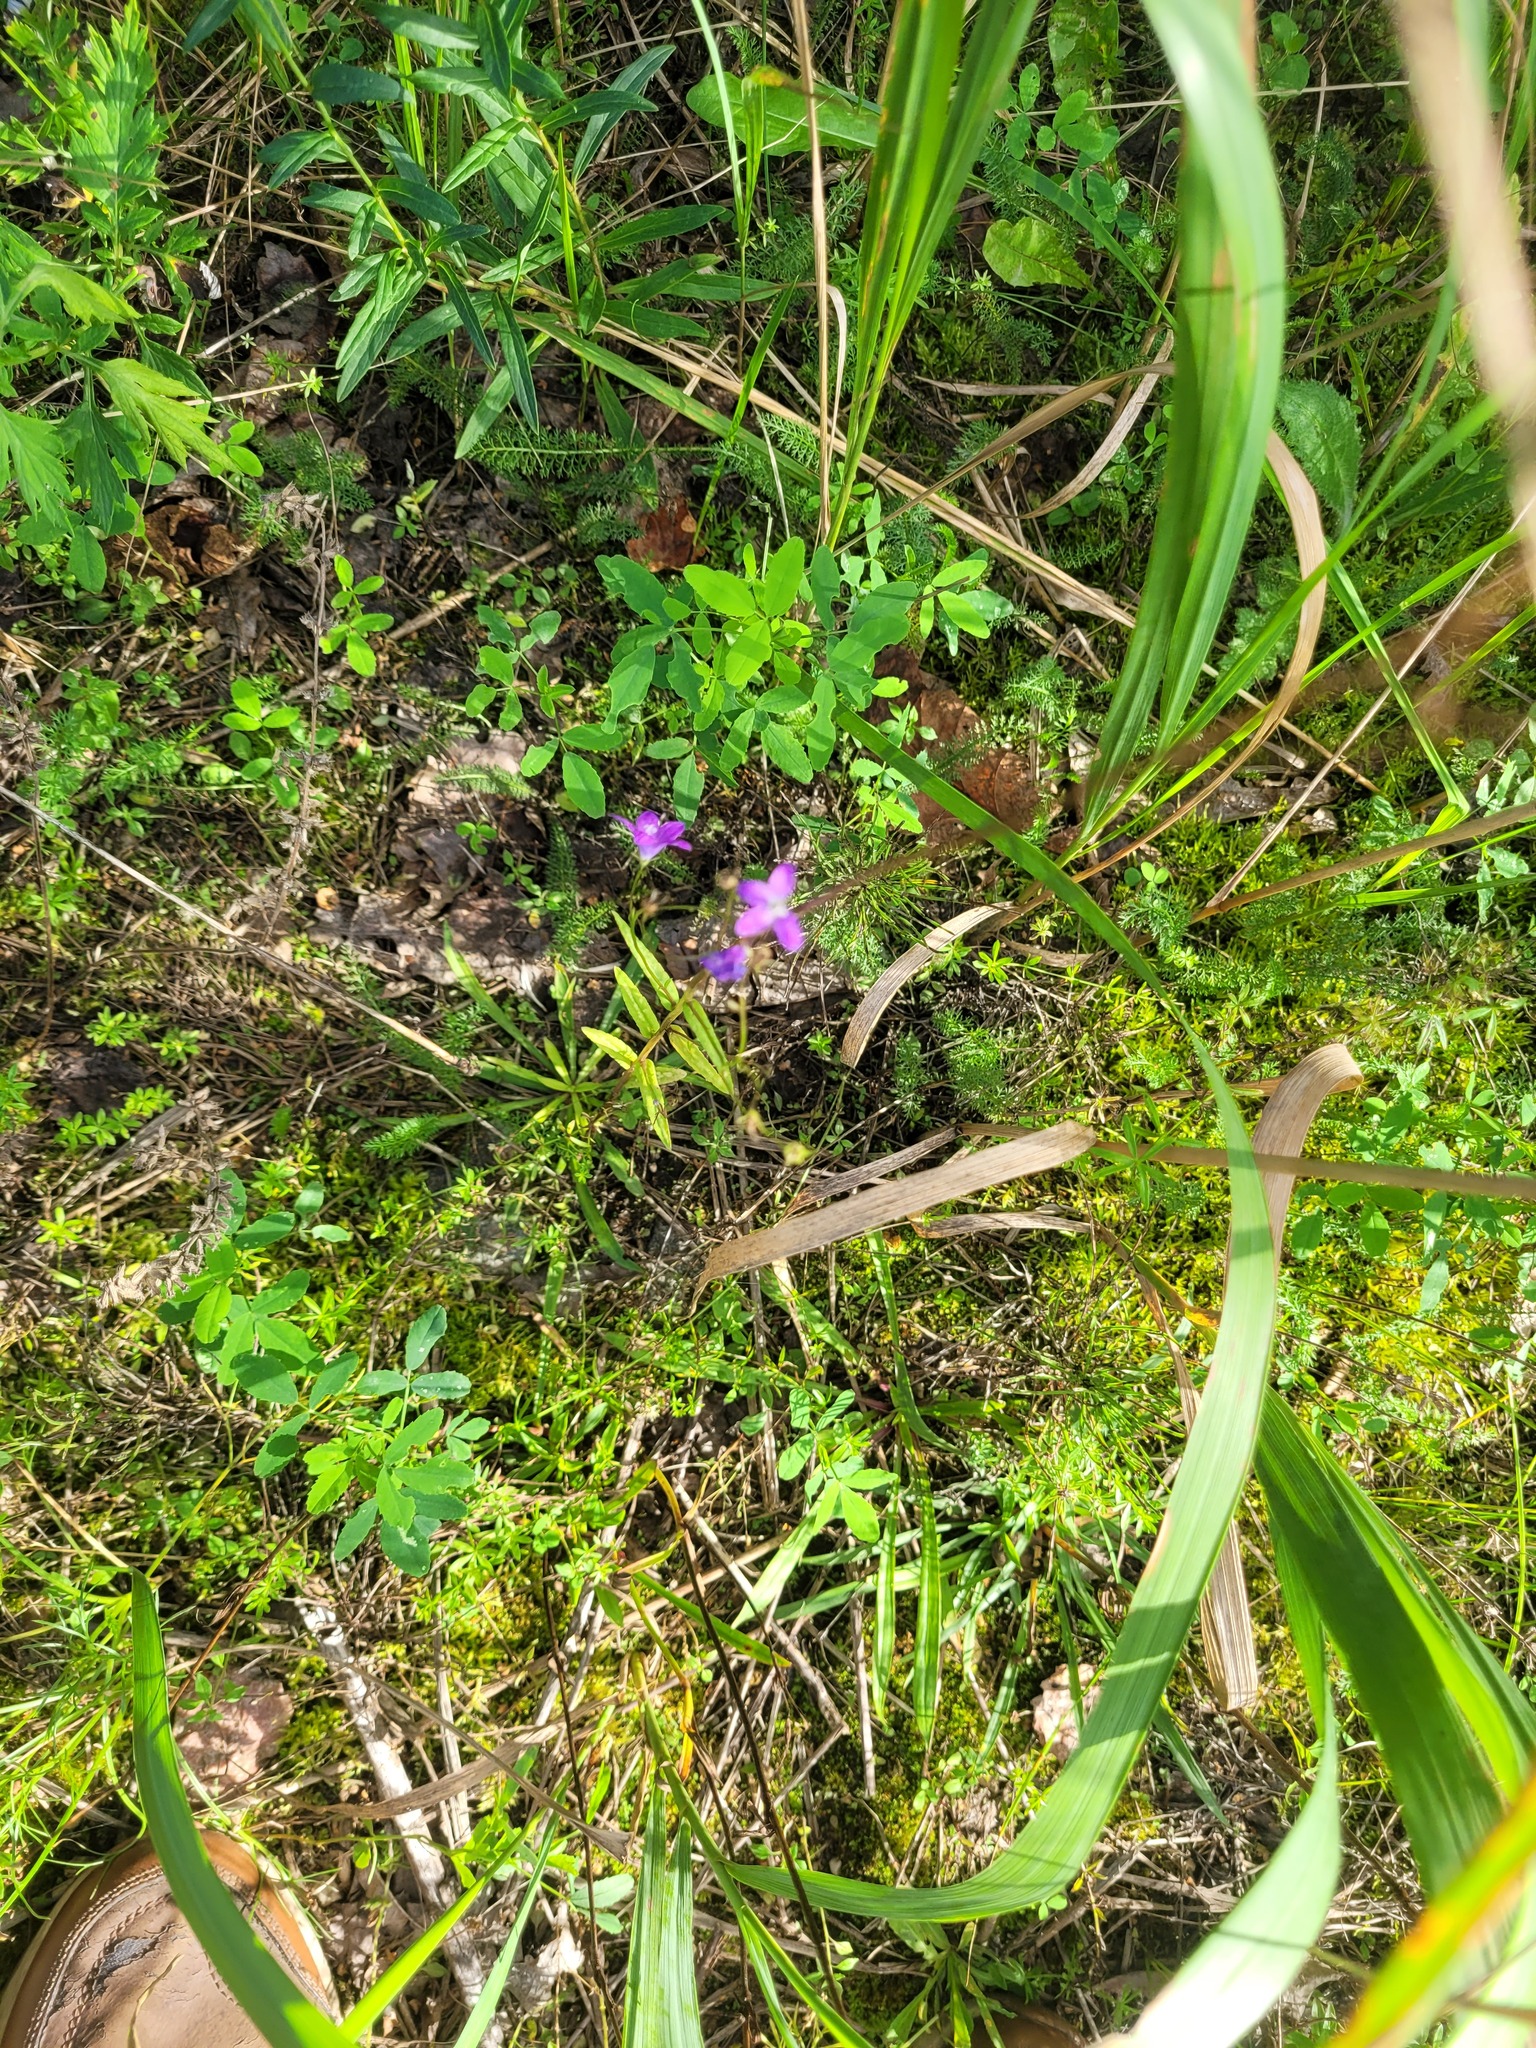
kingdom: Plantae
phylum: Tracheophyta
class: Magnoliopsida
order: Asterales
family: Campanulaceae
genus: Campanula
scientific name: Campanula patula
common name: Spreading bellflower
